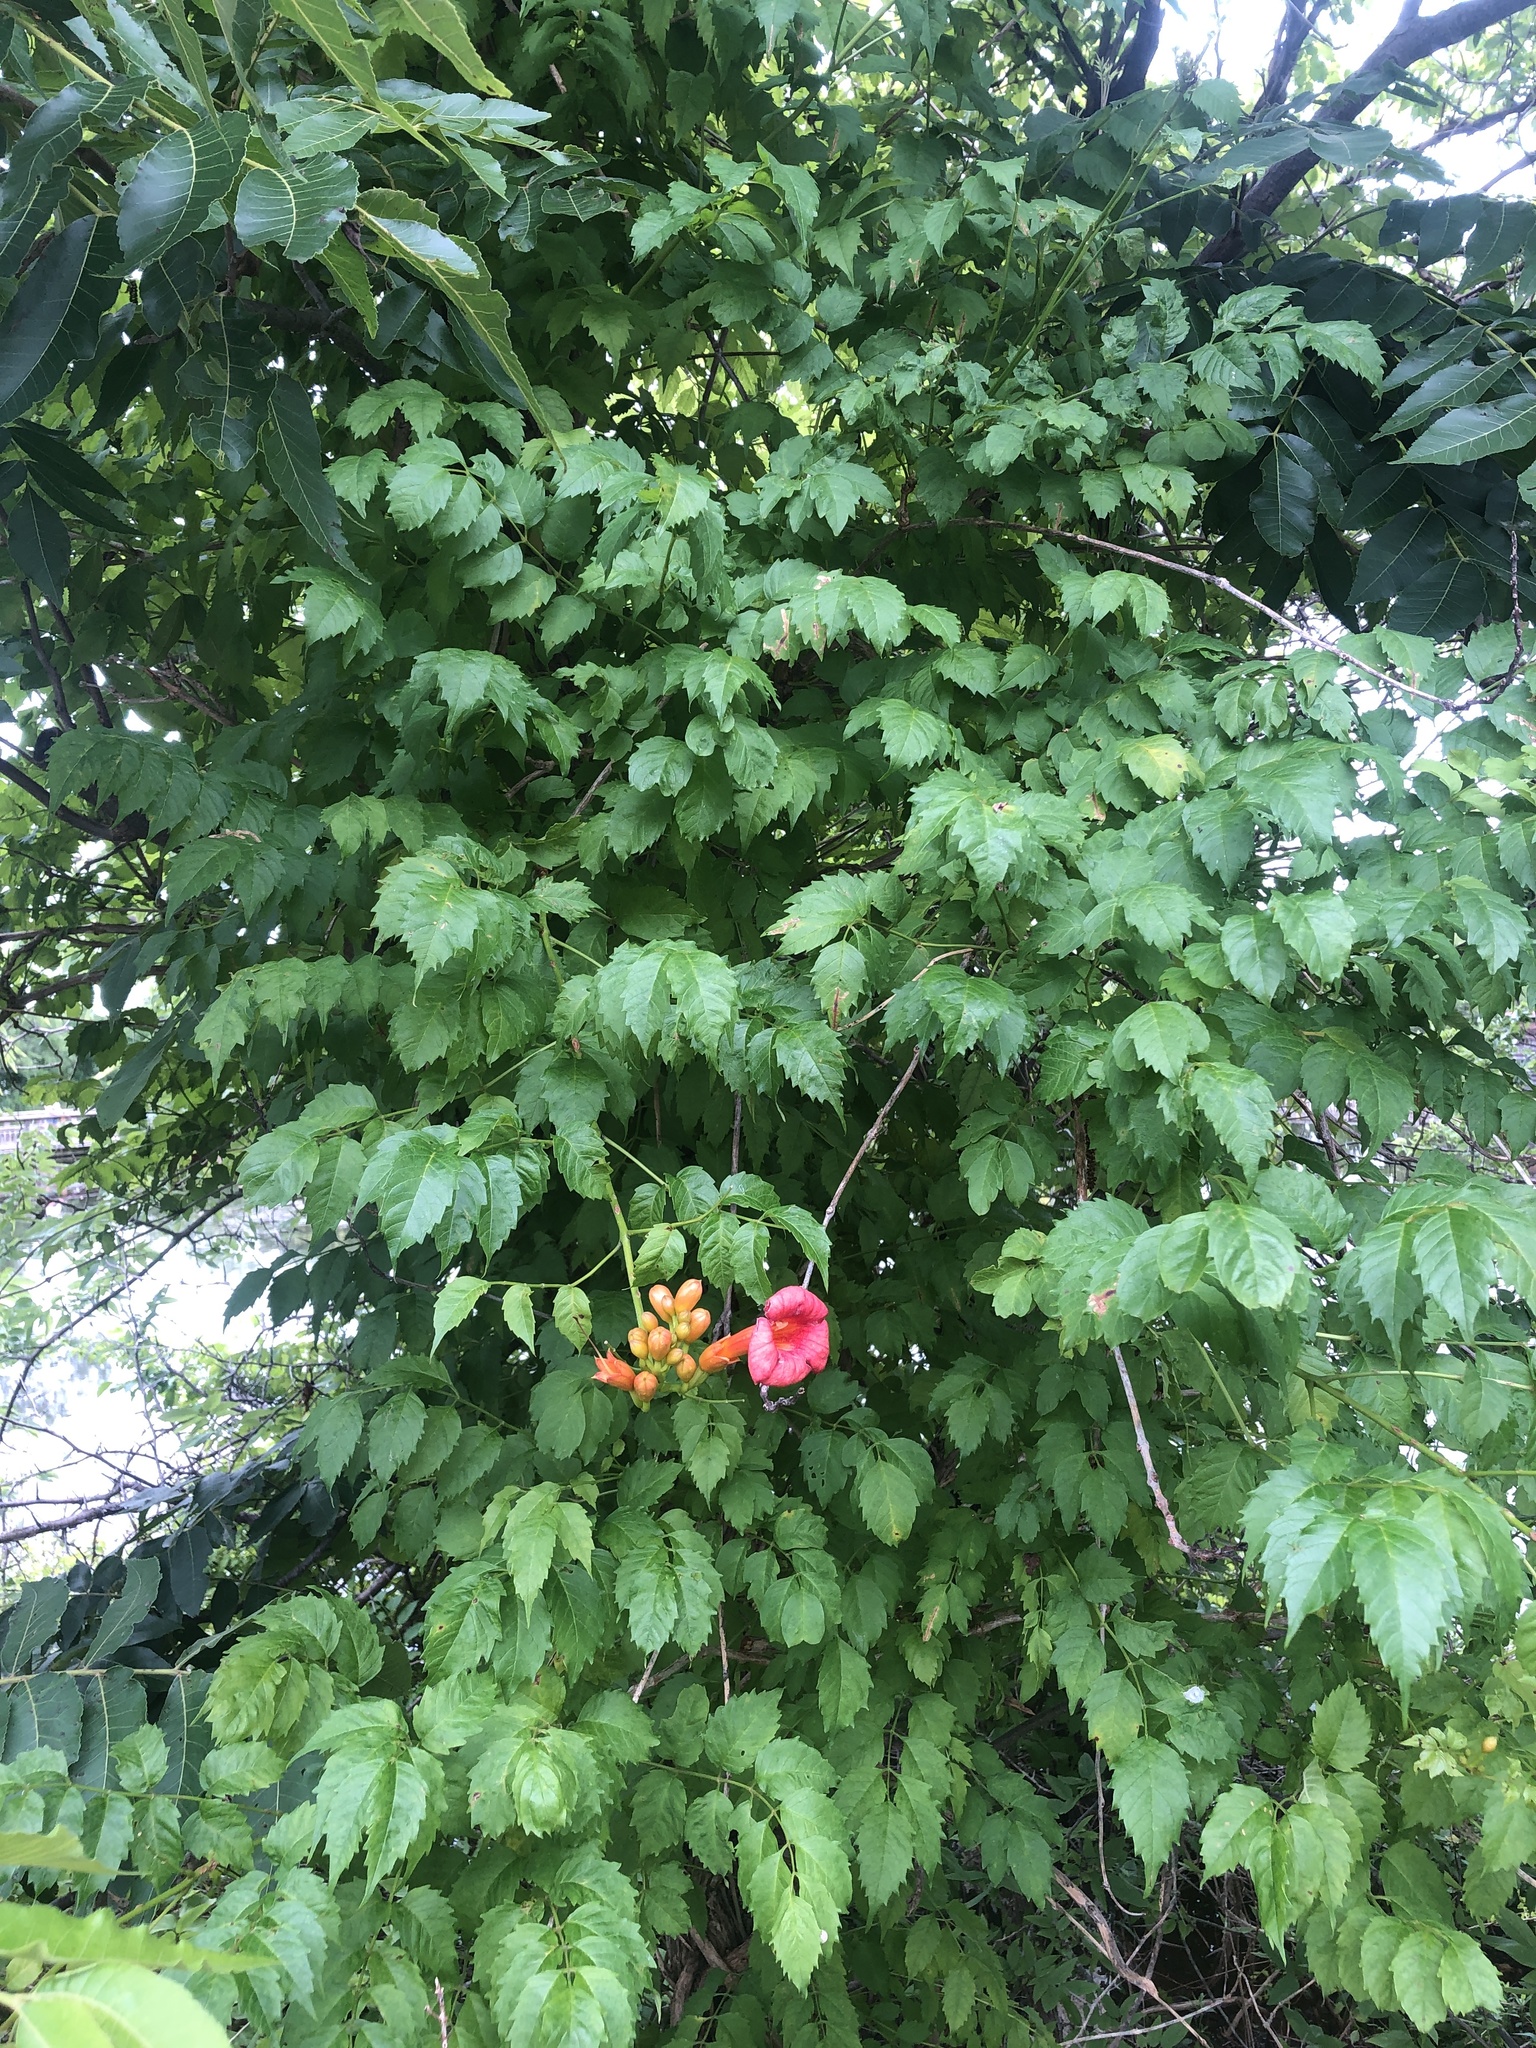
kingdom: Plantae
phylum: Tracheophyta
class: Magnoliopsida
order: Lamiales
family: Bignoniaceae
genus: Campsis
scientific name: Campsis radicans
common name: Trumpet-creeper
